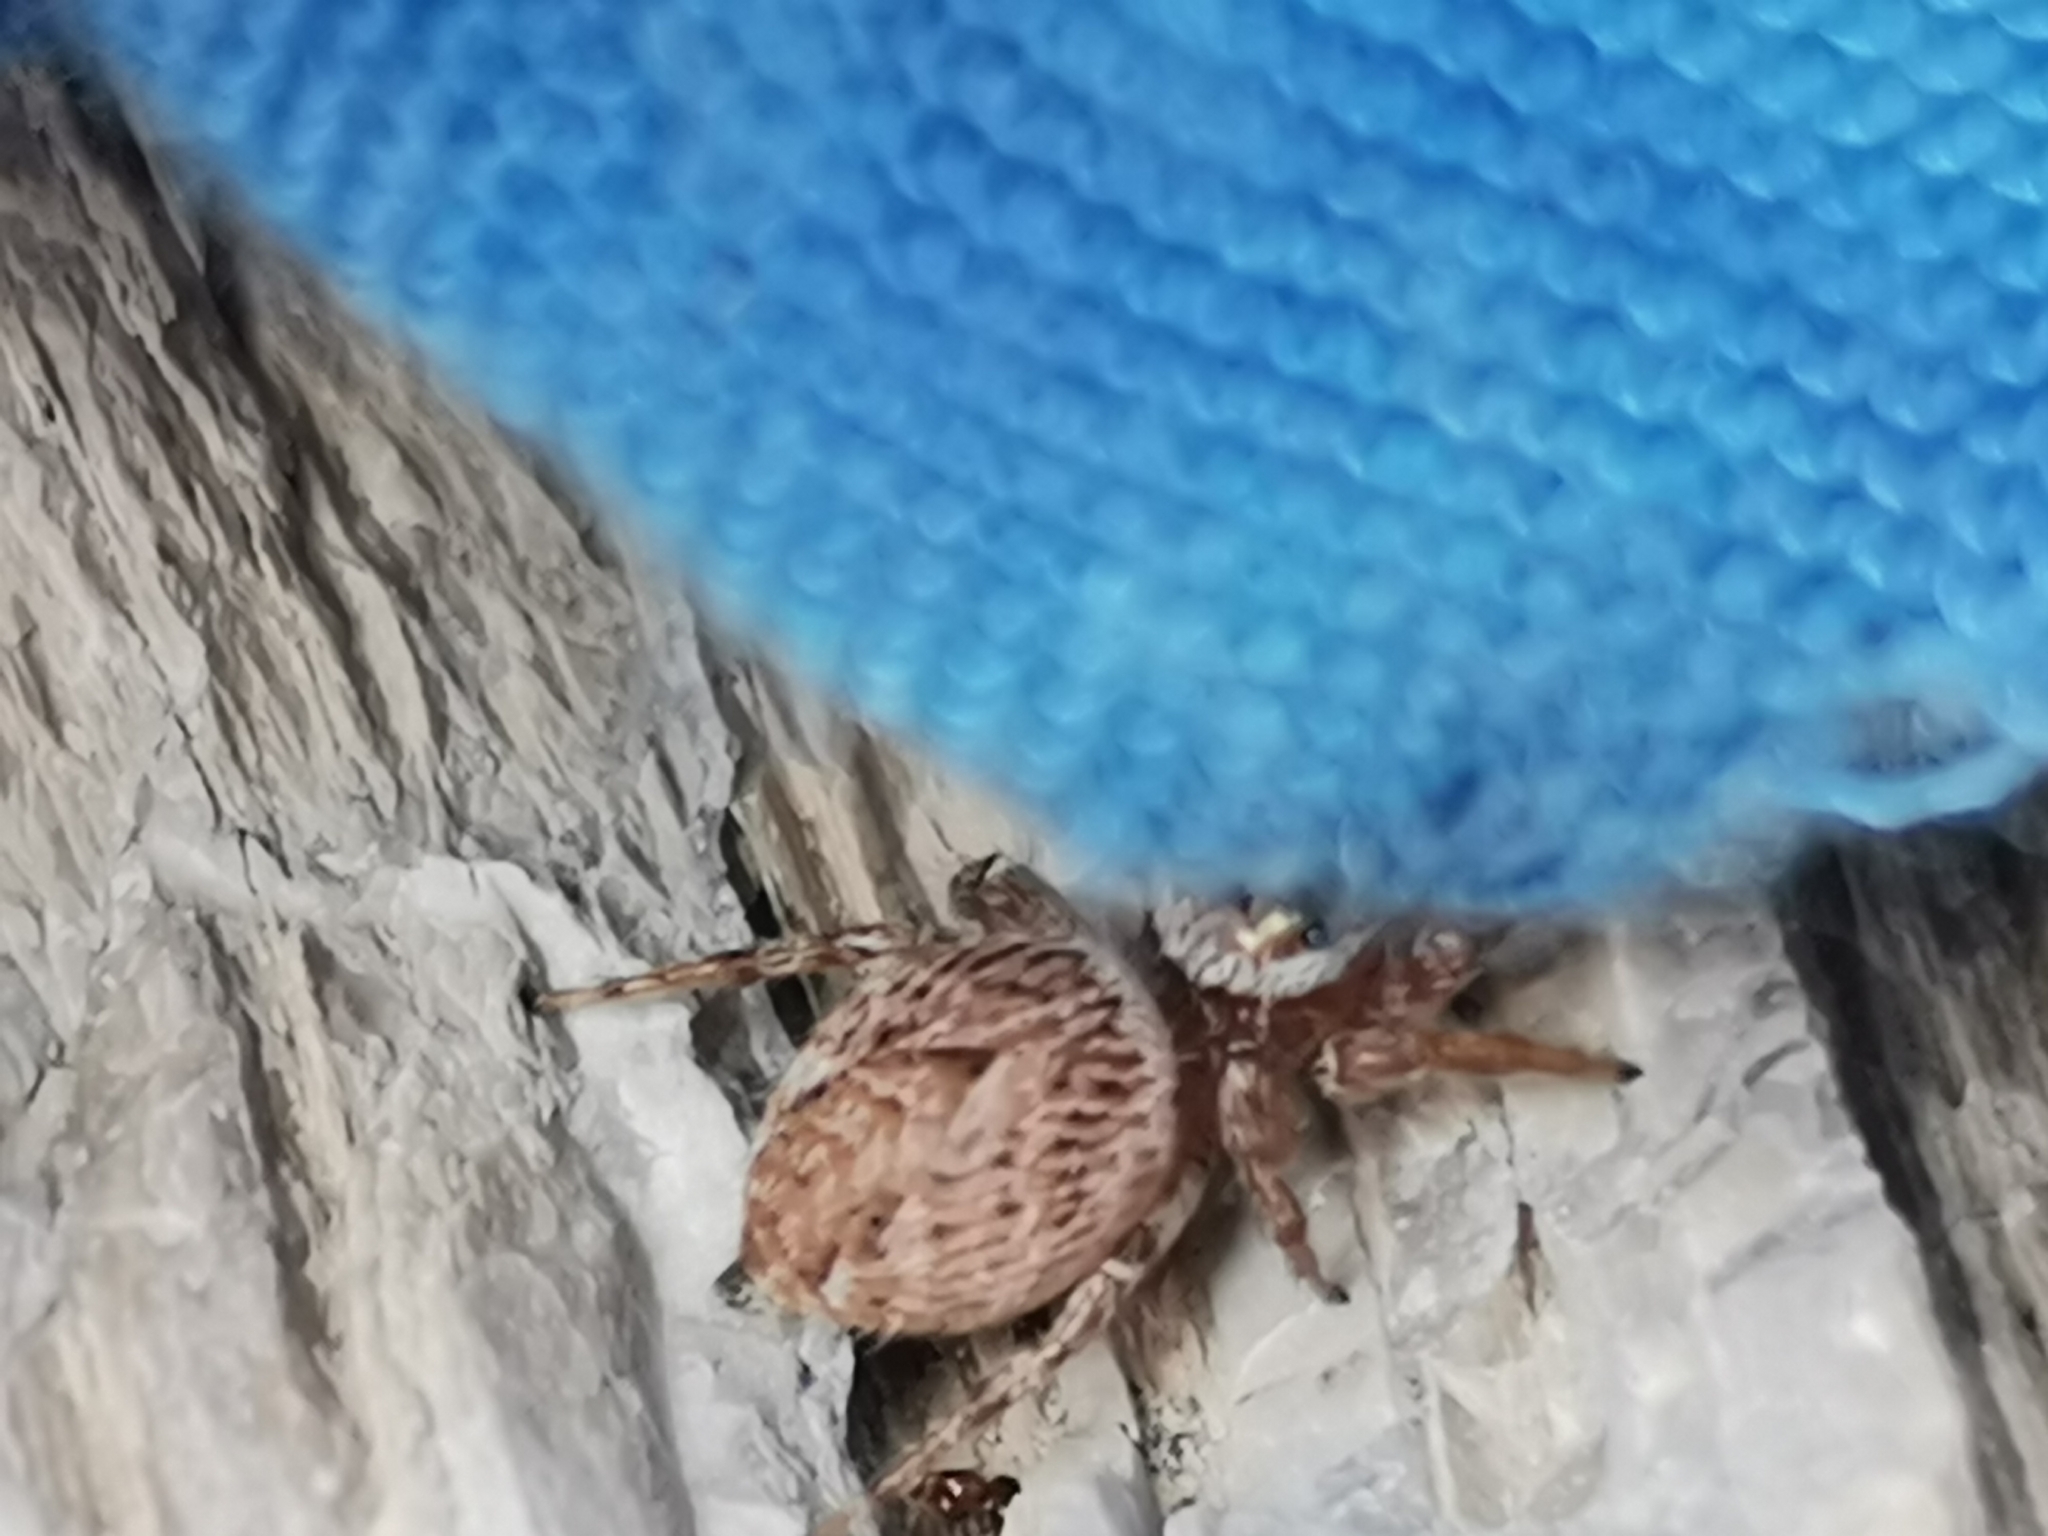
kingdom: Animalia
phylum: Arthropoda
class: Arachnida
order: Araneae
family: Salticidae
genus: Evarcha
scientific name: Evarcha jucunda
